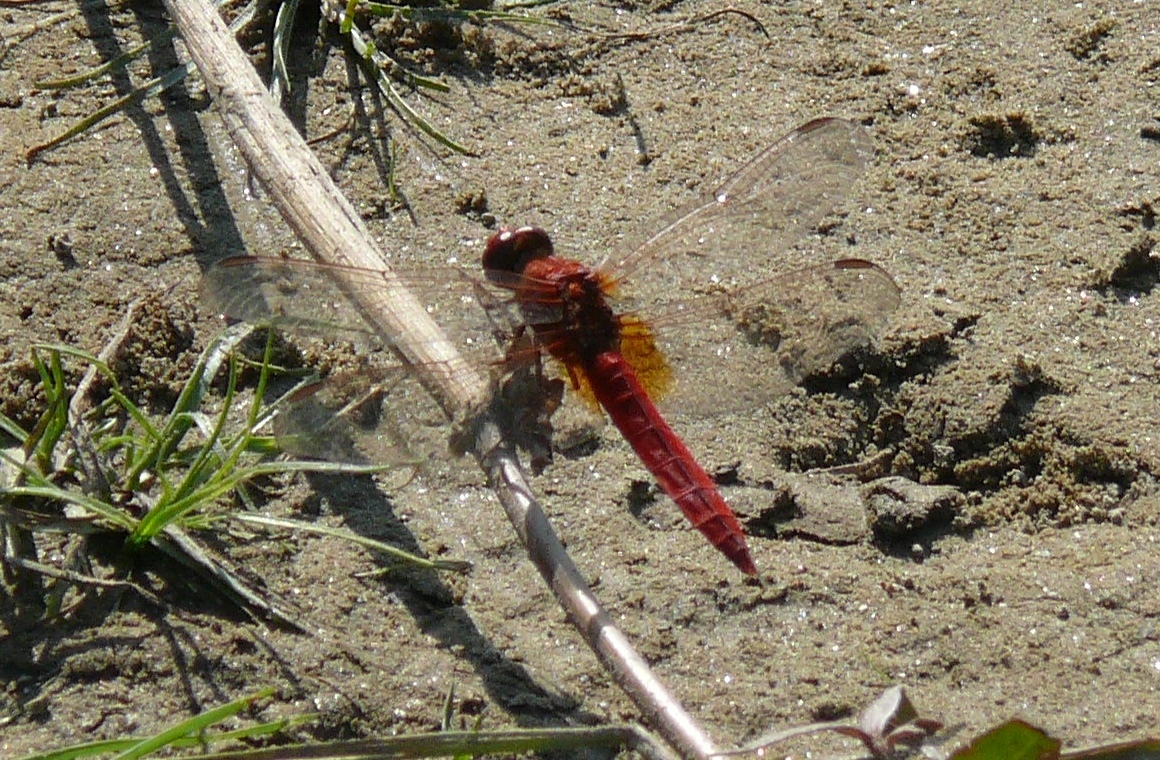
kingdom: Animalia
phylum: Arthropoda
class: Insecta
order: Odonata
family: Libellulidae
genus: Crocothemis
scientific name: Crocothemis servilia
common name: Scarlet skimmer
